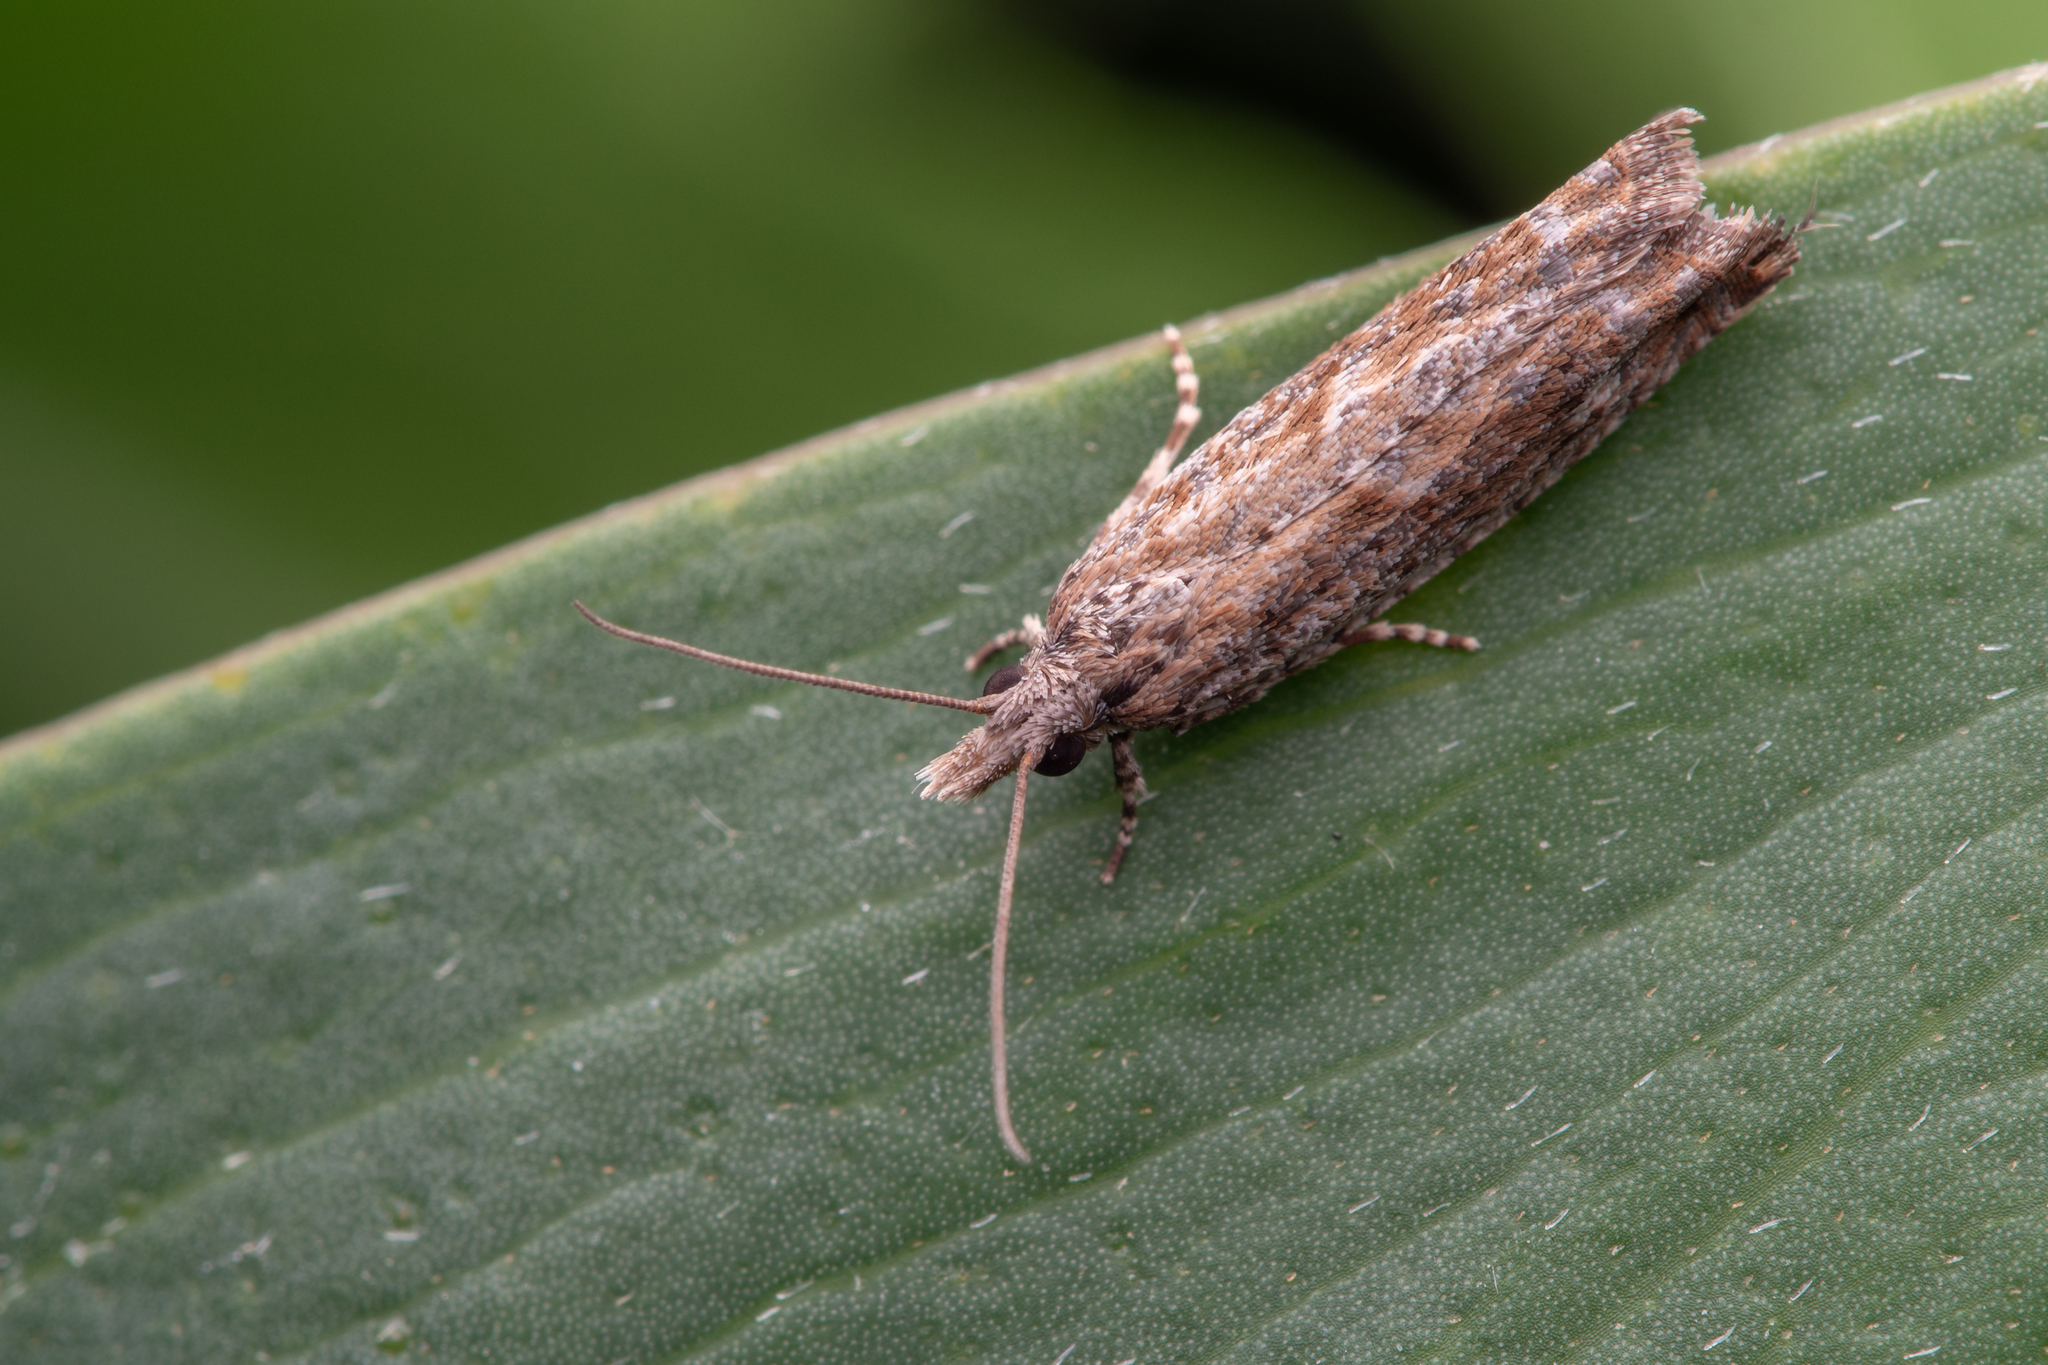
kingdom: Animalia
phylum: Arthropoda
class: Insecta
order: Lepidoptera
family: Tortricidae
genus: Strepsicrates
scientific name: Strepsicrates ejectana
